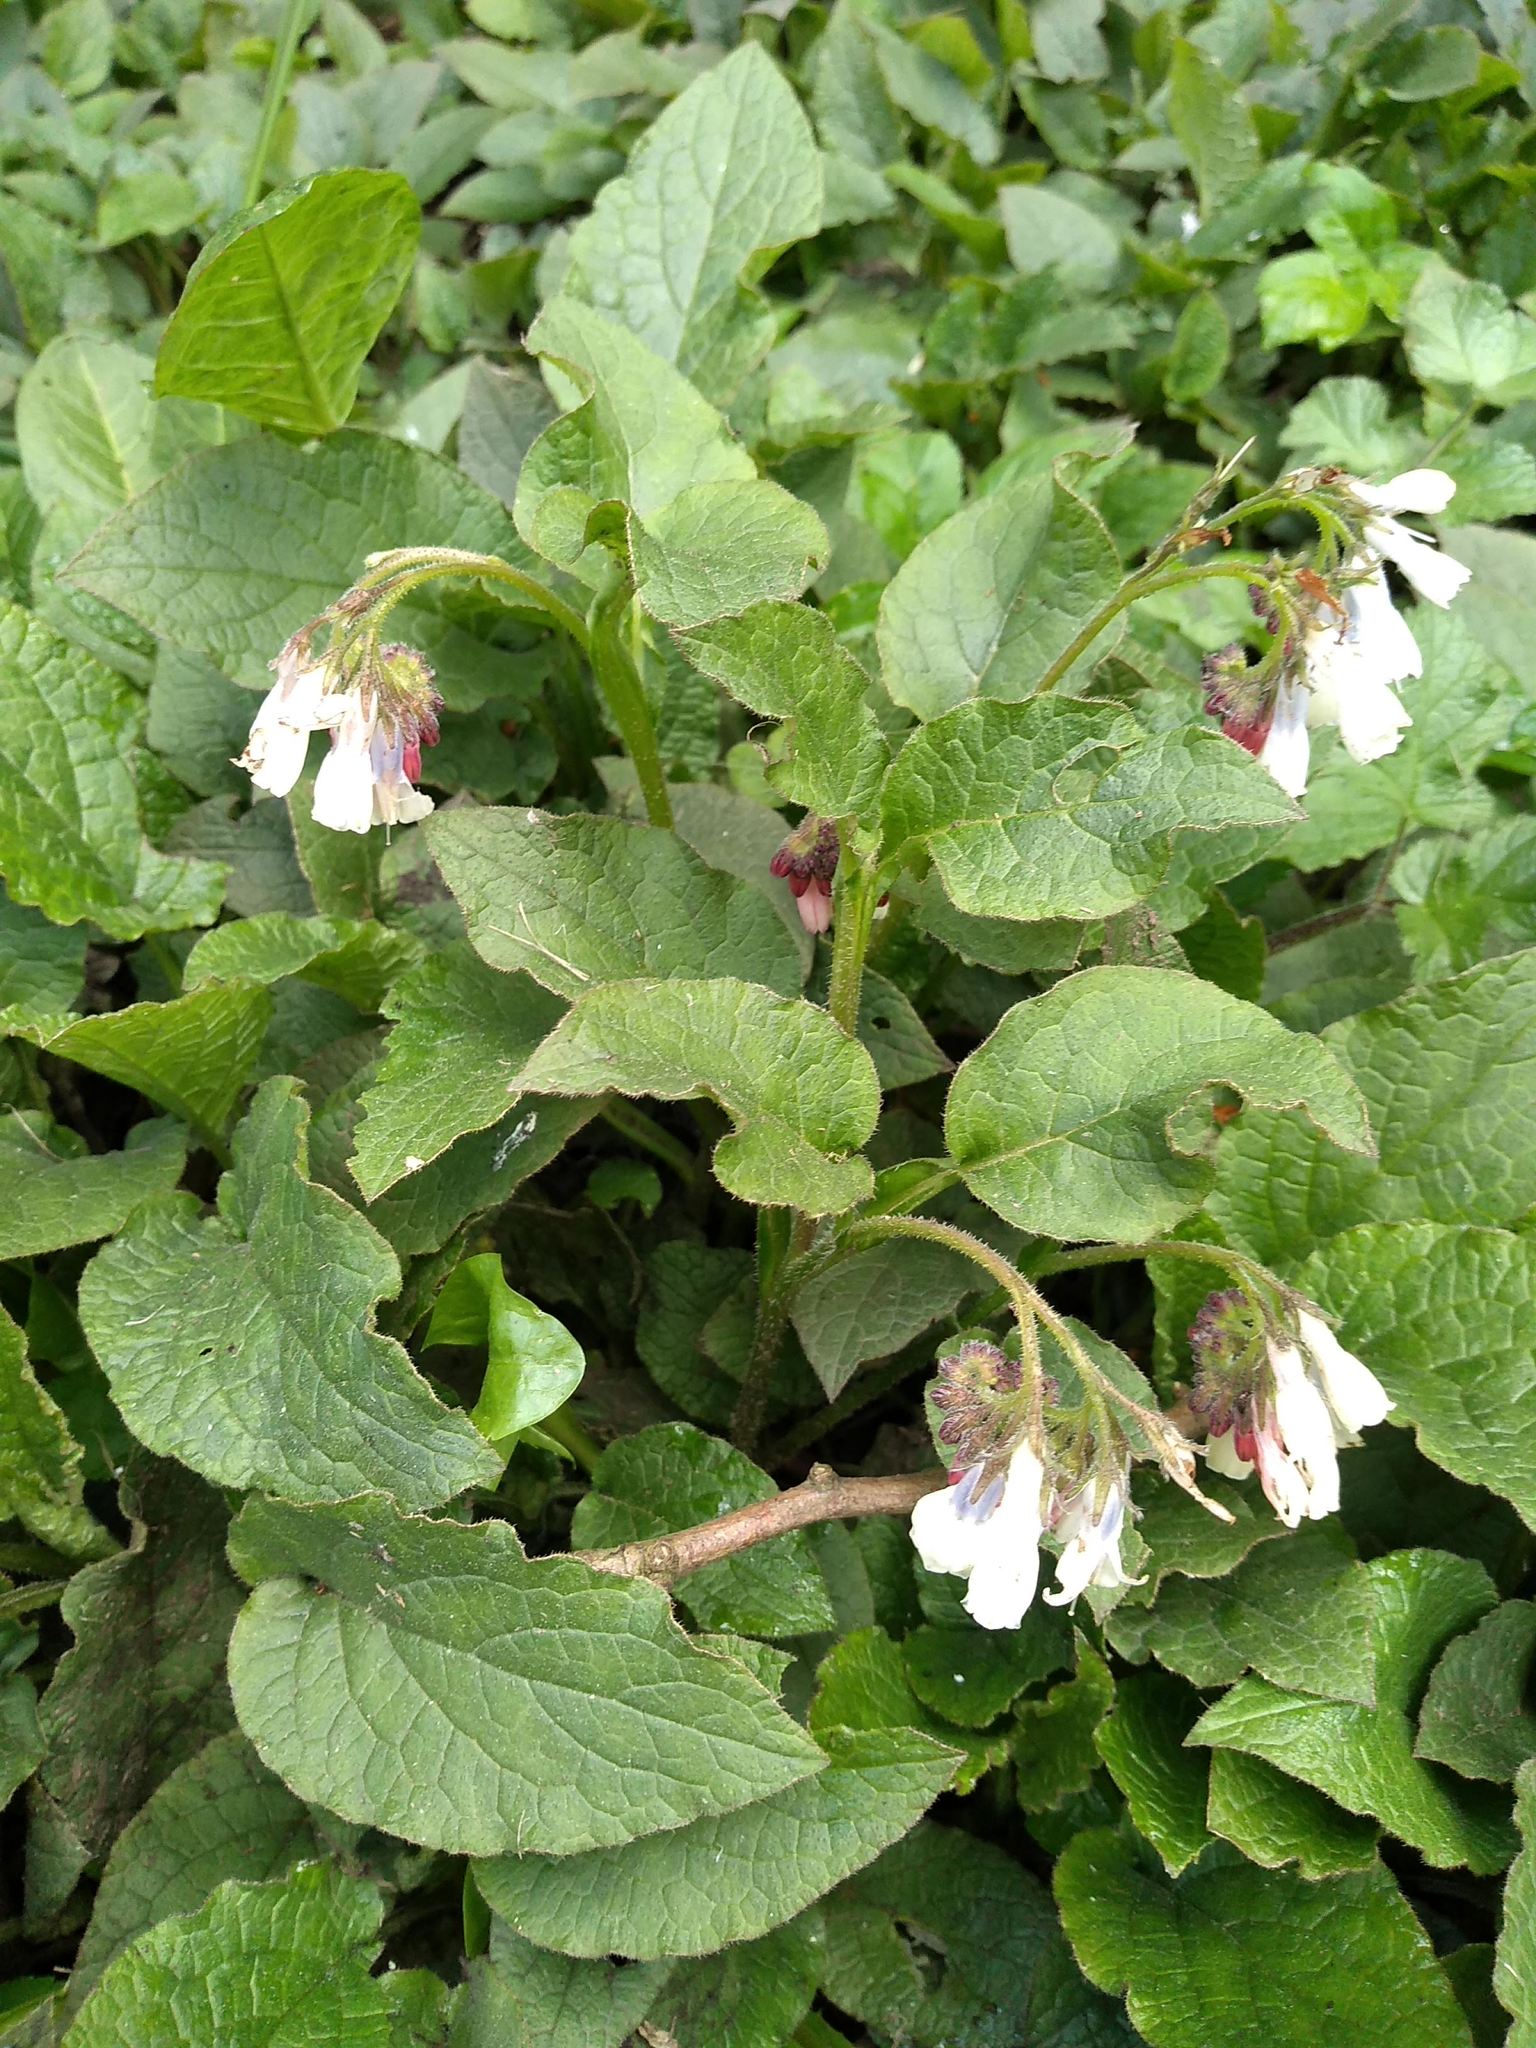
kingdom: Plantae
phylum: Tracheophyta
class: Magnoliopsida
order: Boraginales
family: Boraginaceae
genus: Symphytum
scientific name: Symphytum hidcotense
